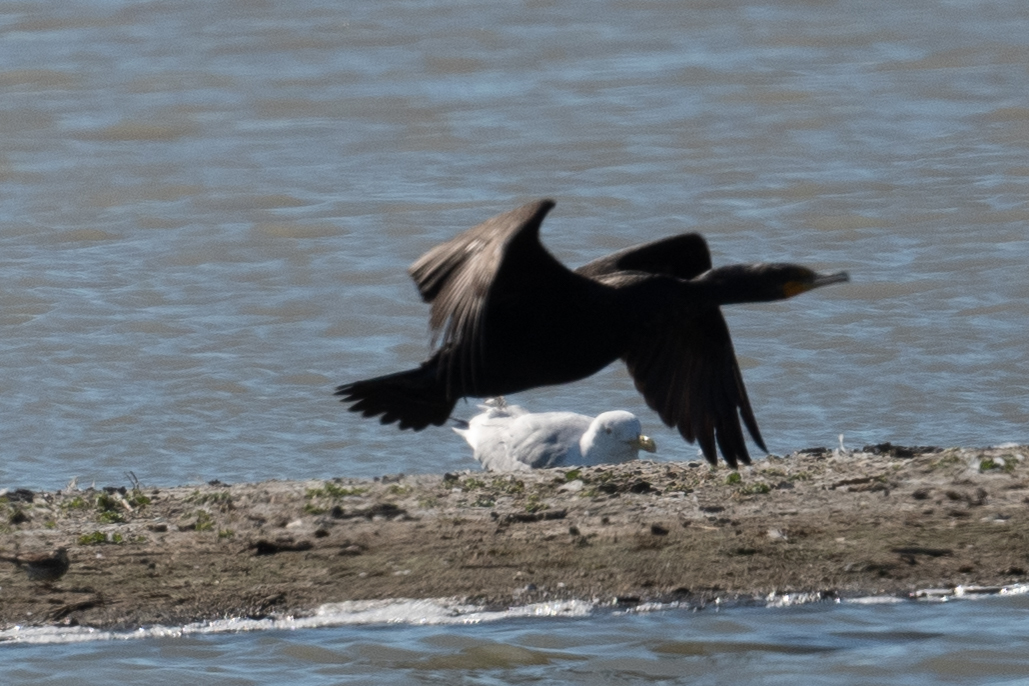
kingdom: Animalia
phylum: Chordata
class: Aves
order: Suliformes
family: Phalacrocoracidae
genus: Phalacrocorax
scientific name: Phalacrocorax auritus
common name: Double-crested cormorant
